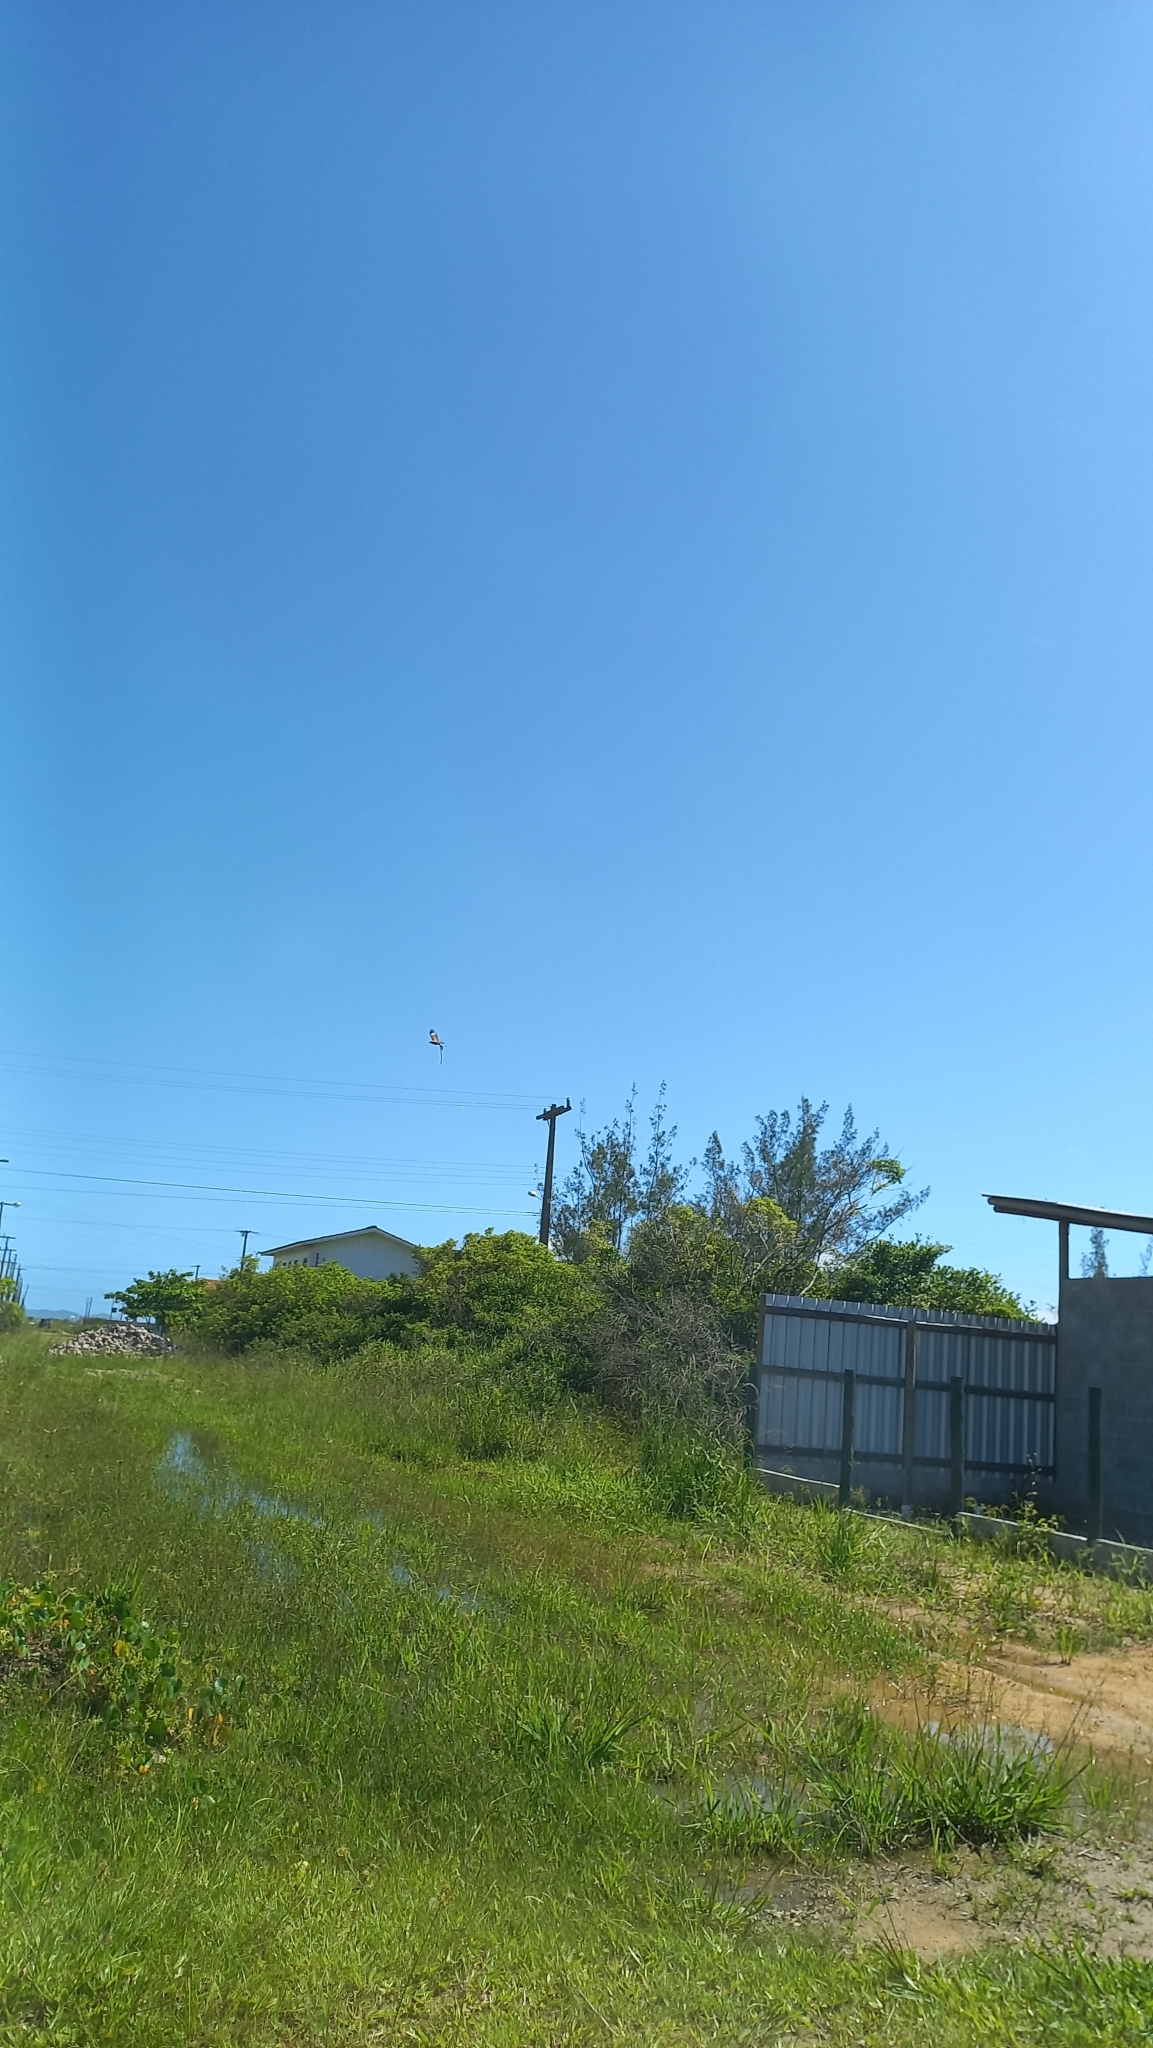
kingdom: Animalia
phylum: Chordata
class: Aves
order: Falconiformes
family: Falconidae
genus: Daptrius
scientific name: Daptrius
